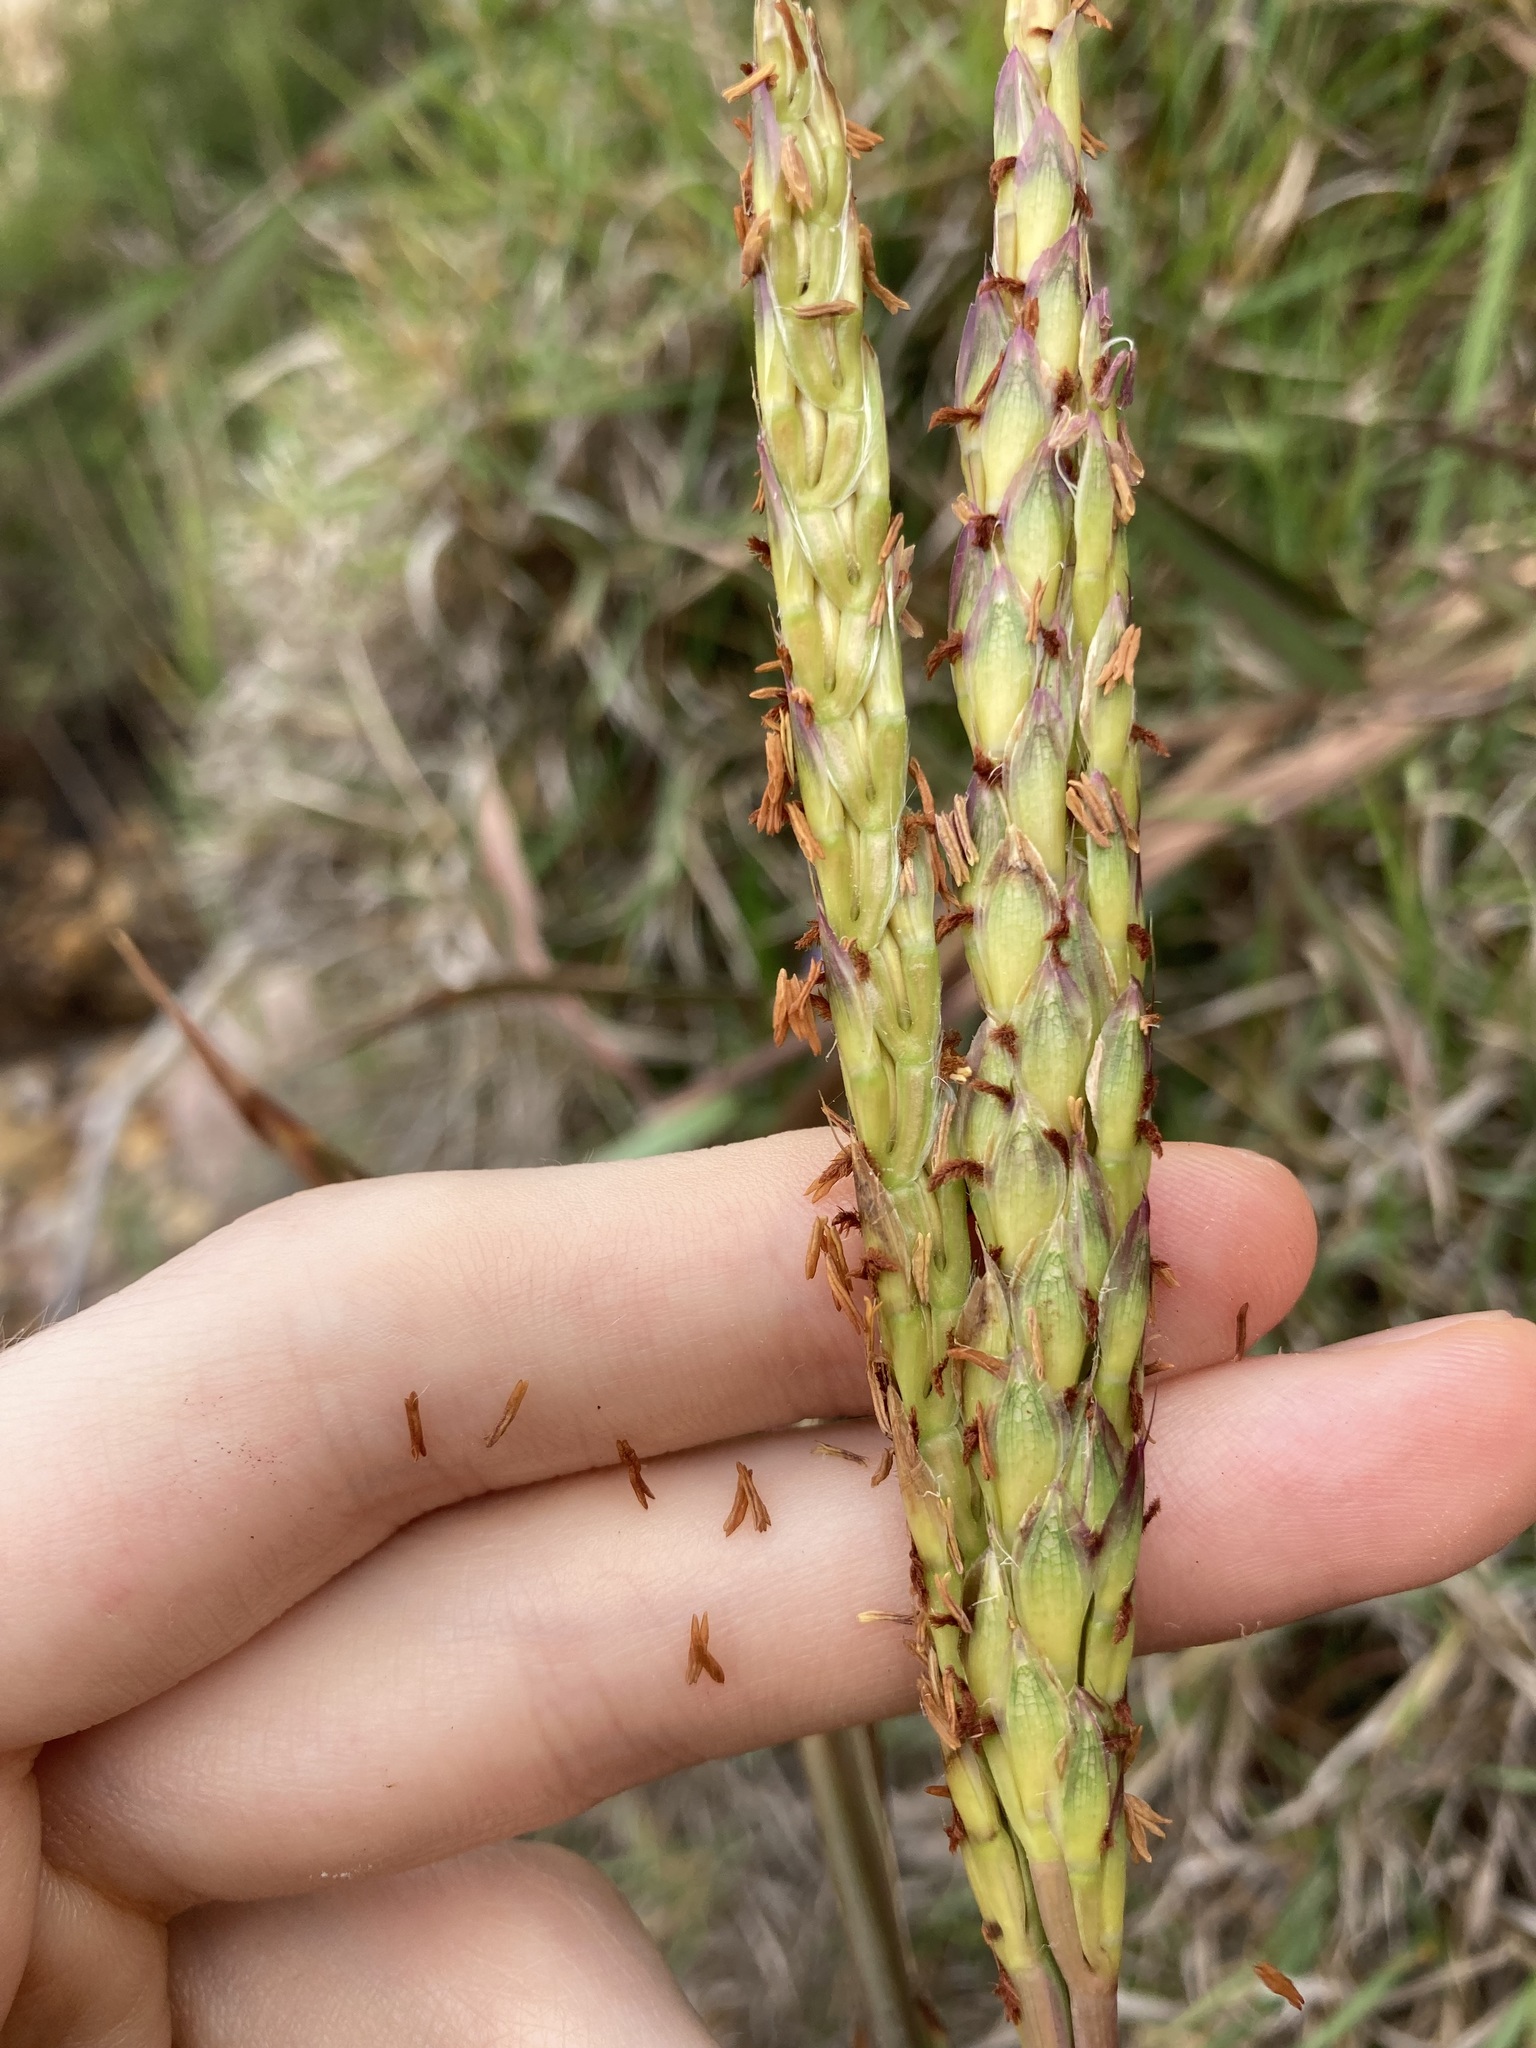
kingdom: Plantae
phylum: Tracheophyta
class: Liliopsida
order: Poales
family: Poaceae
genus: Ischaemum
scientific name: Ischaemum triticeum
